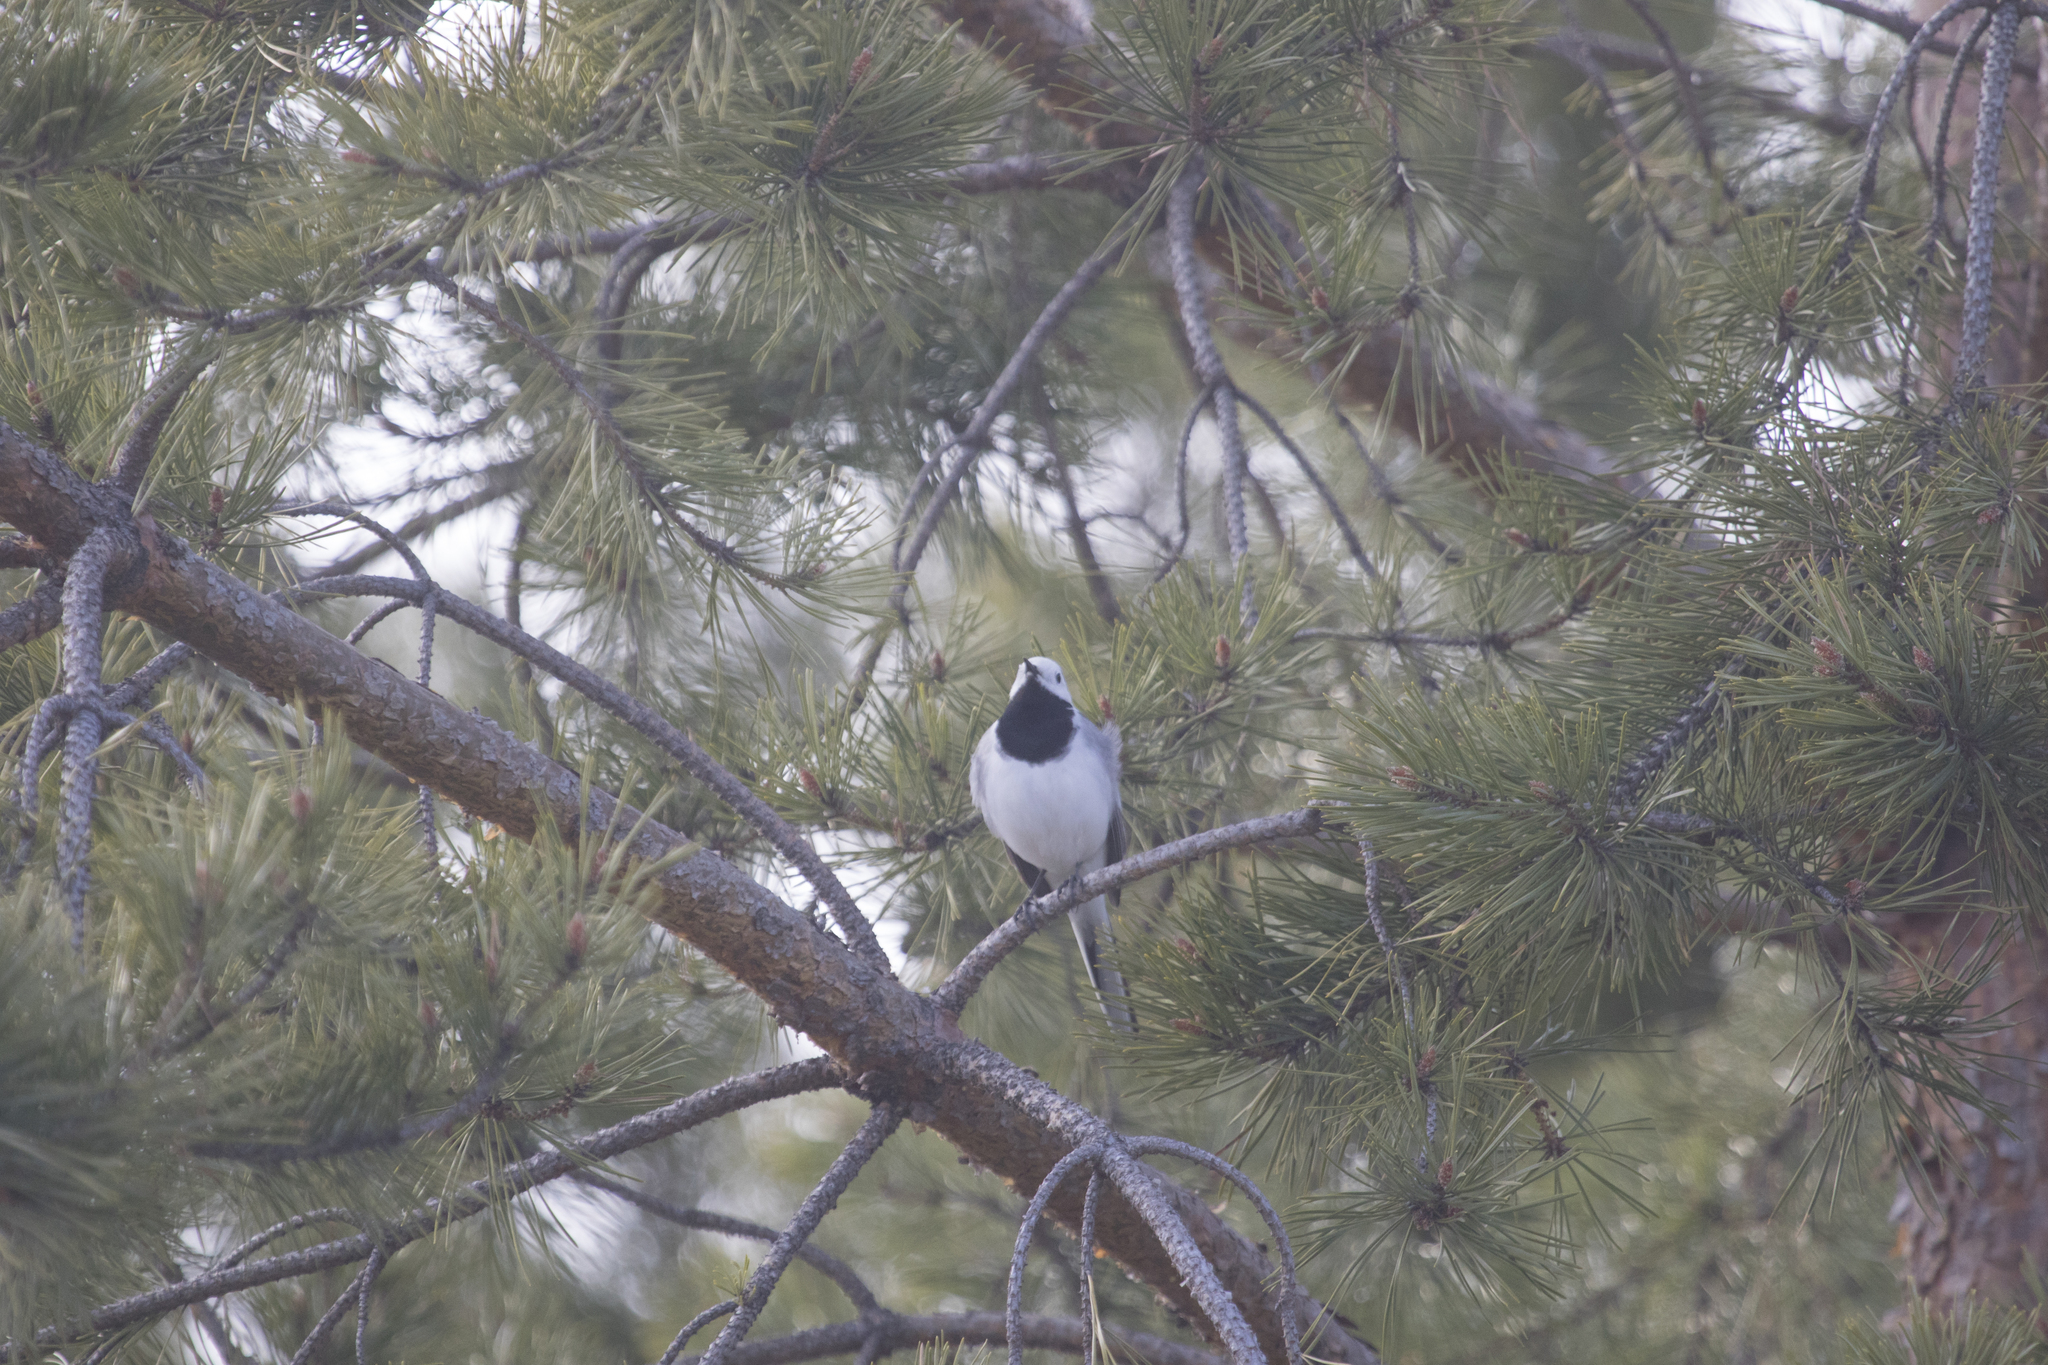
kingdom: Animalia
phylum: Chordata
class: Aves
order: Passeriformes
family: Motacillidae
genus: Motacilla
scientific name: Motacilla alba
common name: White wagtail
